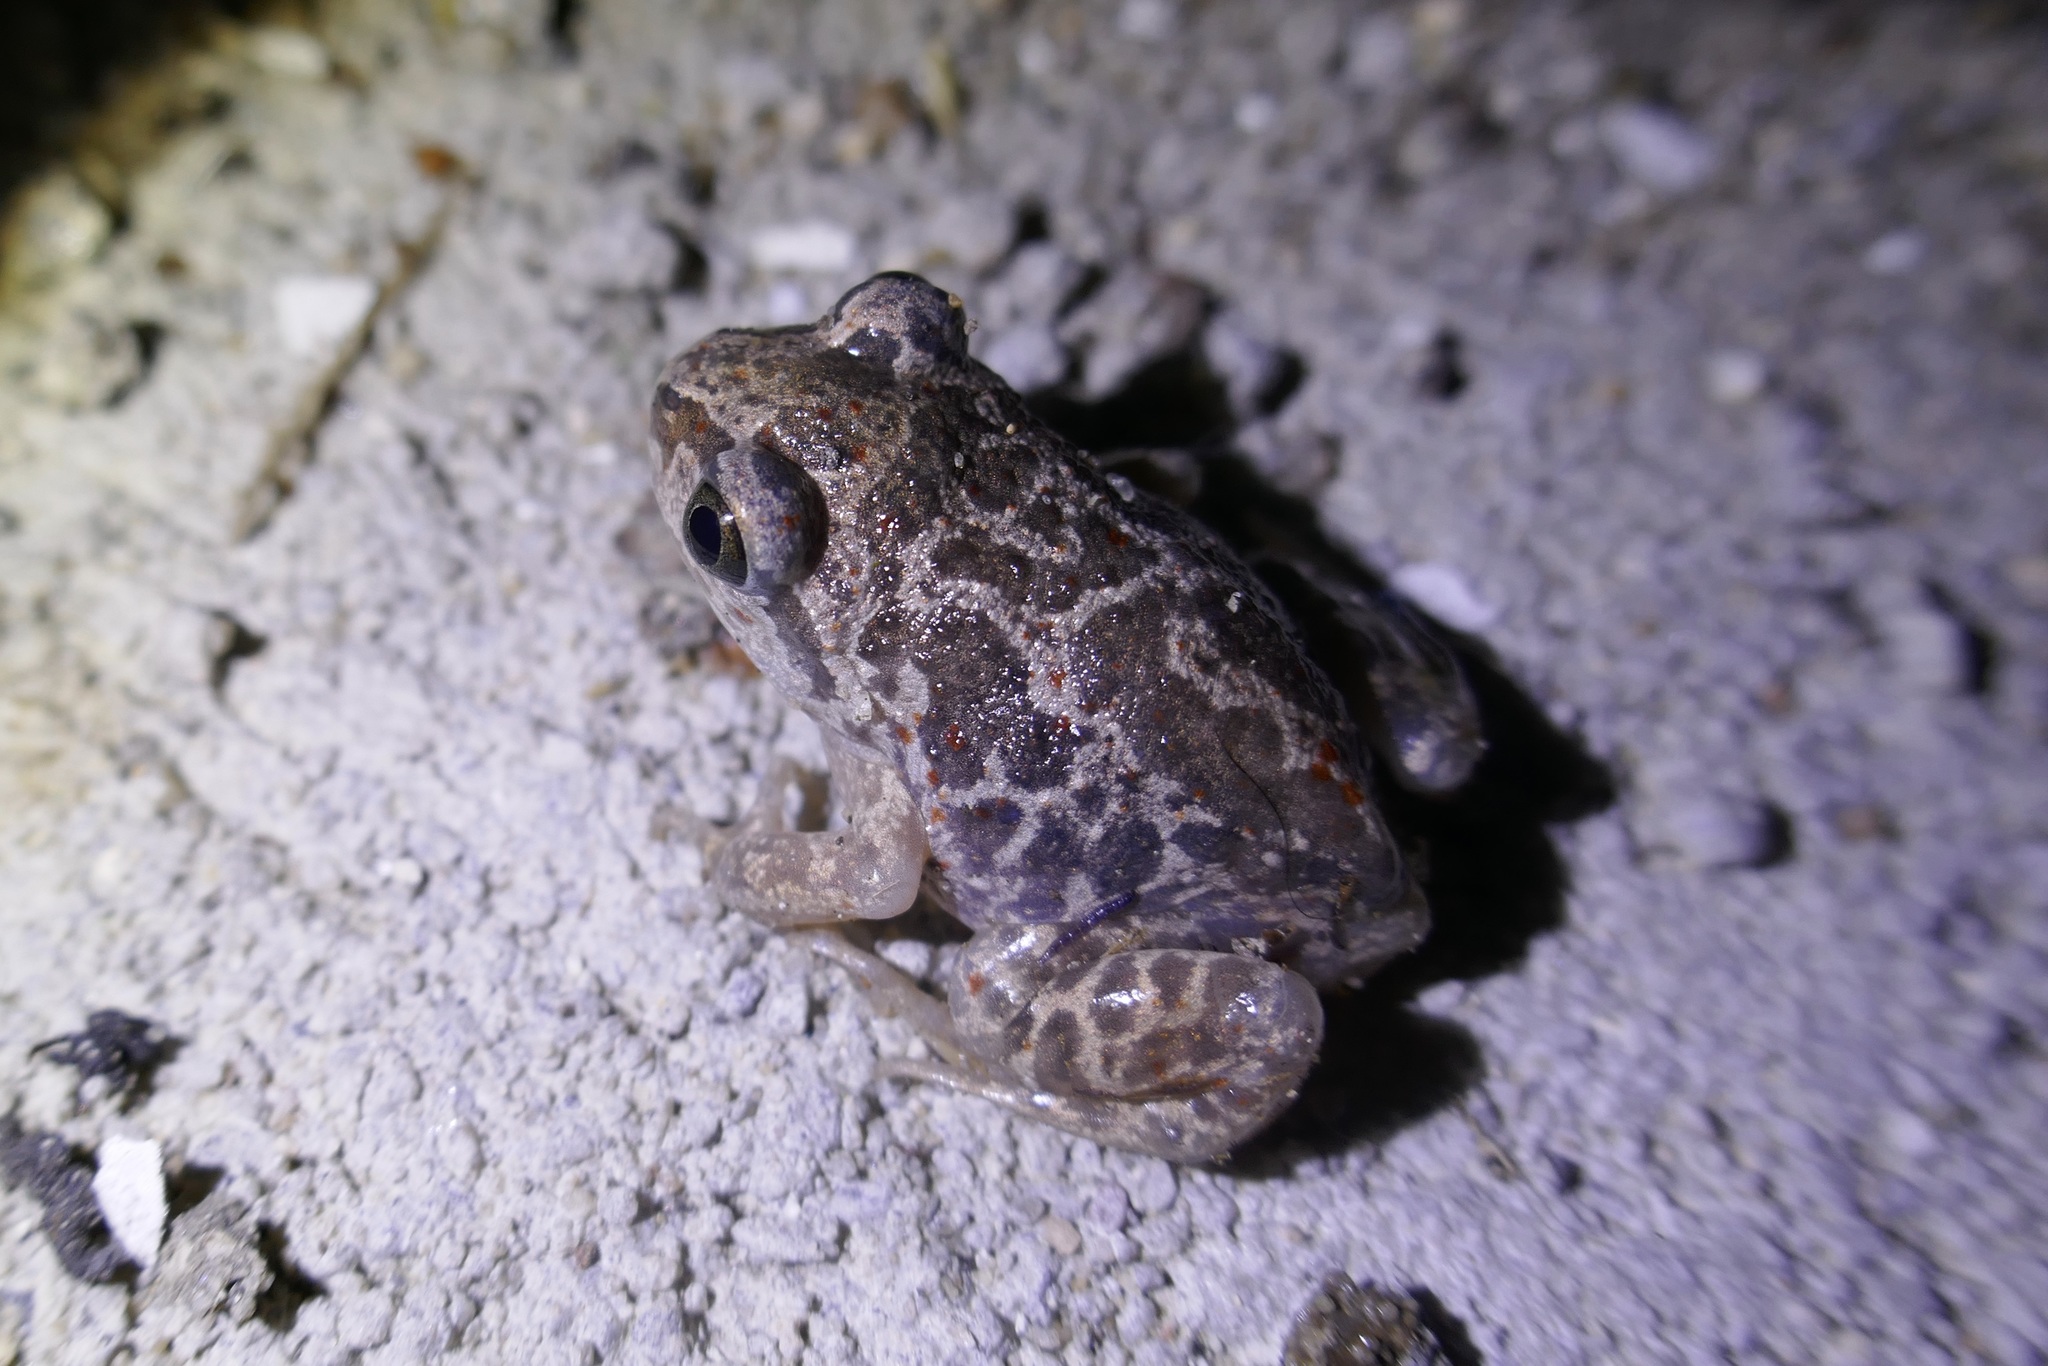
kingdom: Animalia
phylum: Chordata
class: Amphibia
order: Anura
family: Pelobatidae
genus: Pelobates
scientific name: Pelobates fuscus
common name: Common eurasian spadefoot toad
